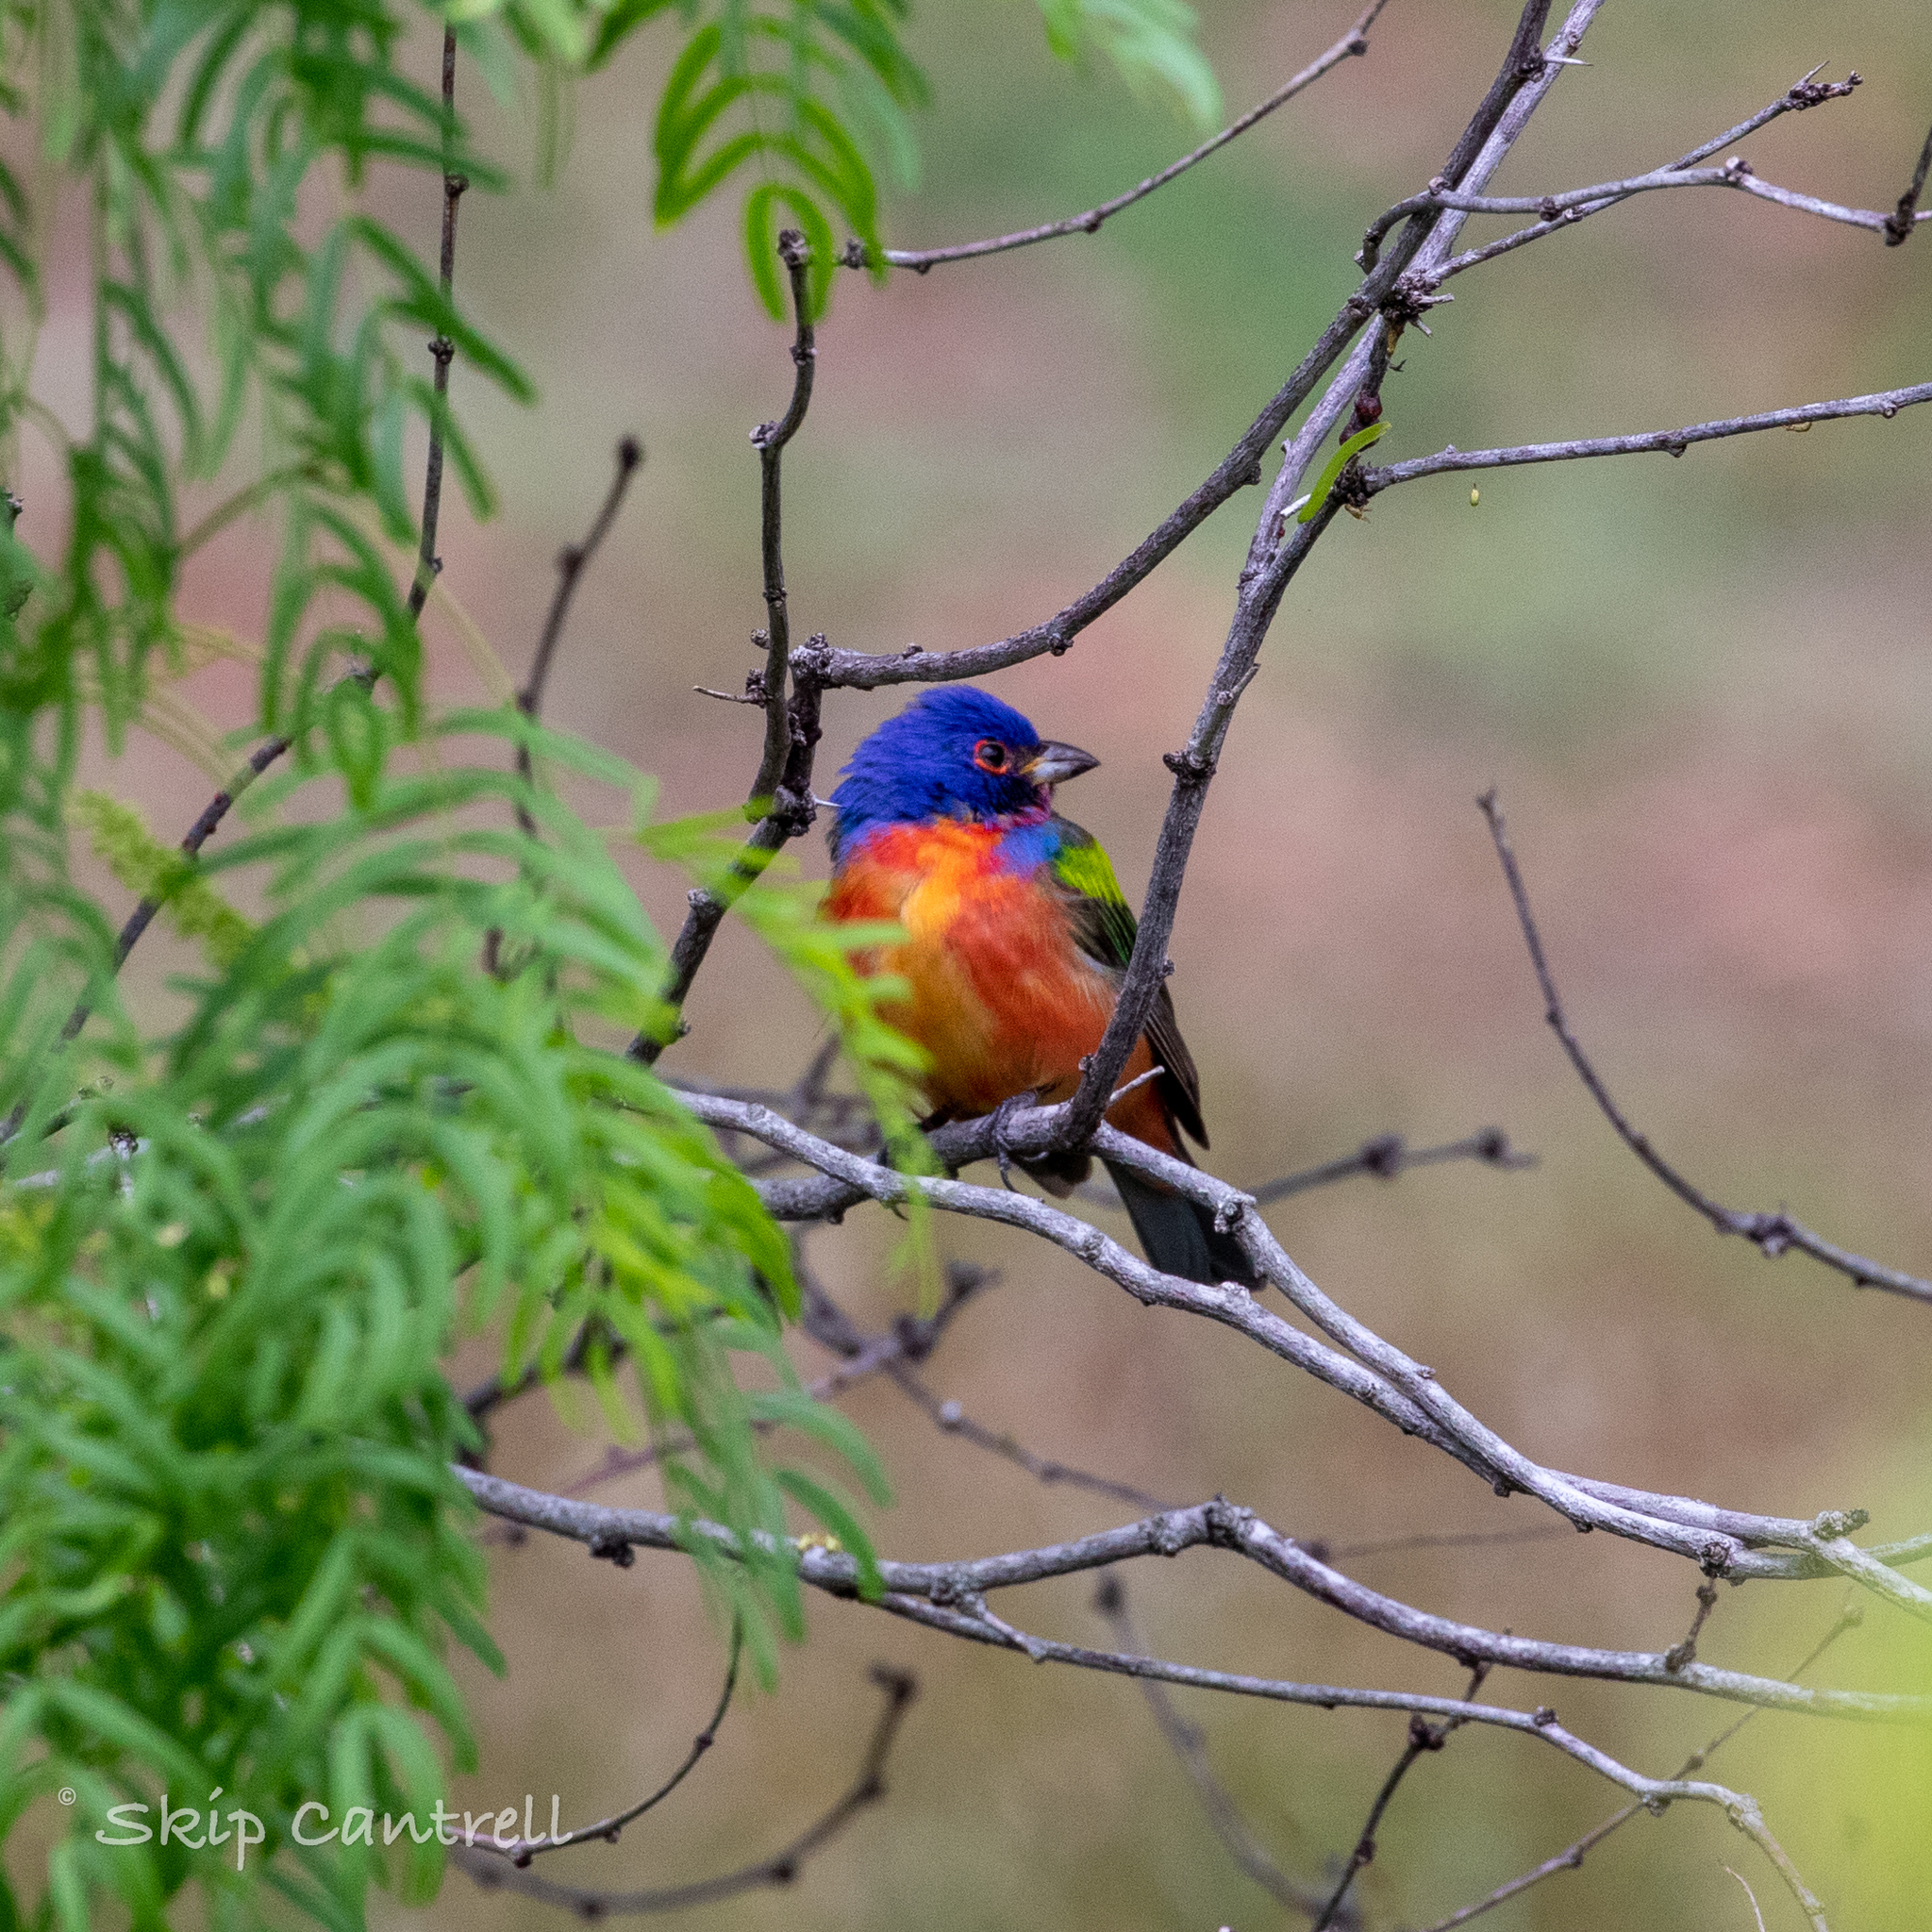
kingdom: Animalia
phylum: Chordata
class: Aves
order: Passeriformes
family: Cardinalidae
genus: Passerina
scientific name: Passerina ciris
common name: Painted bunting
